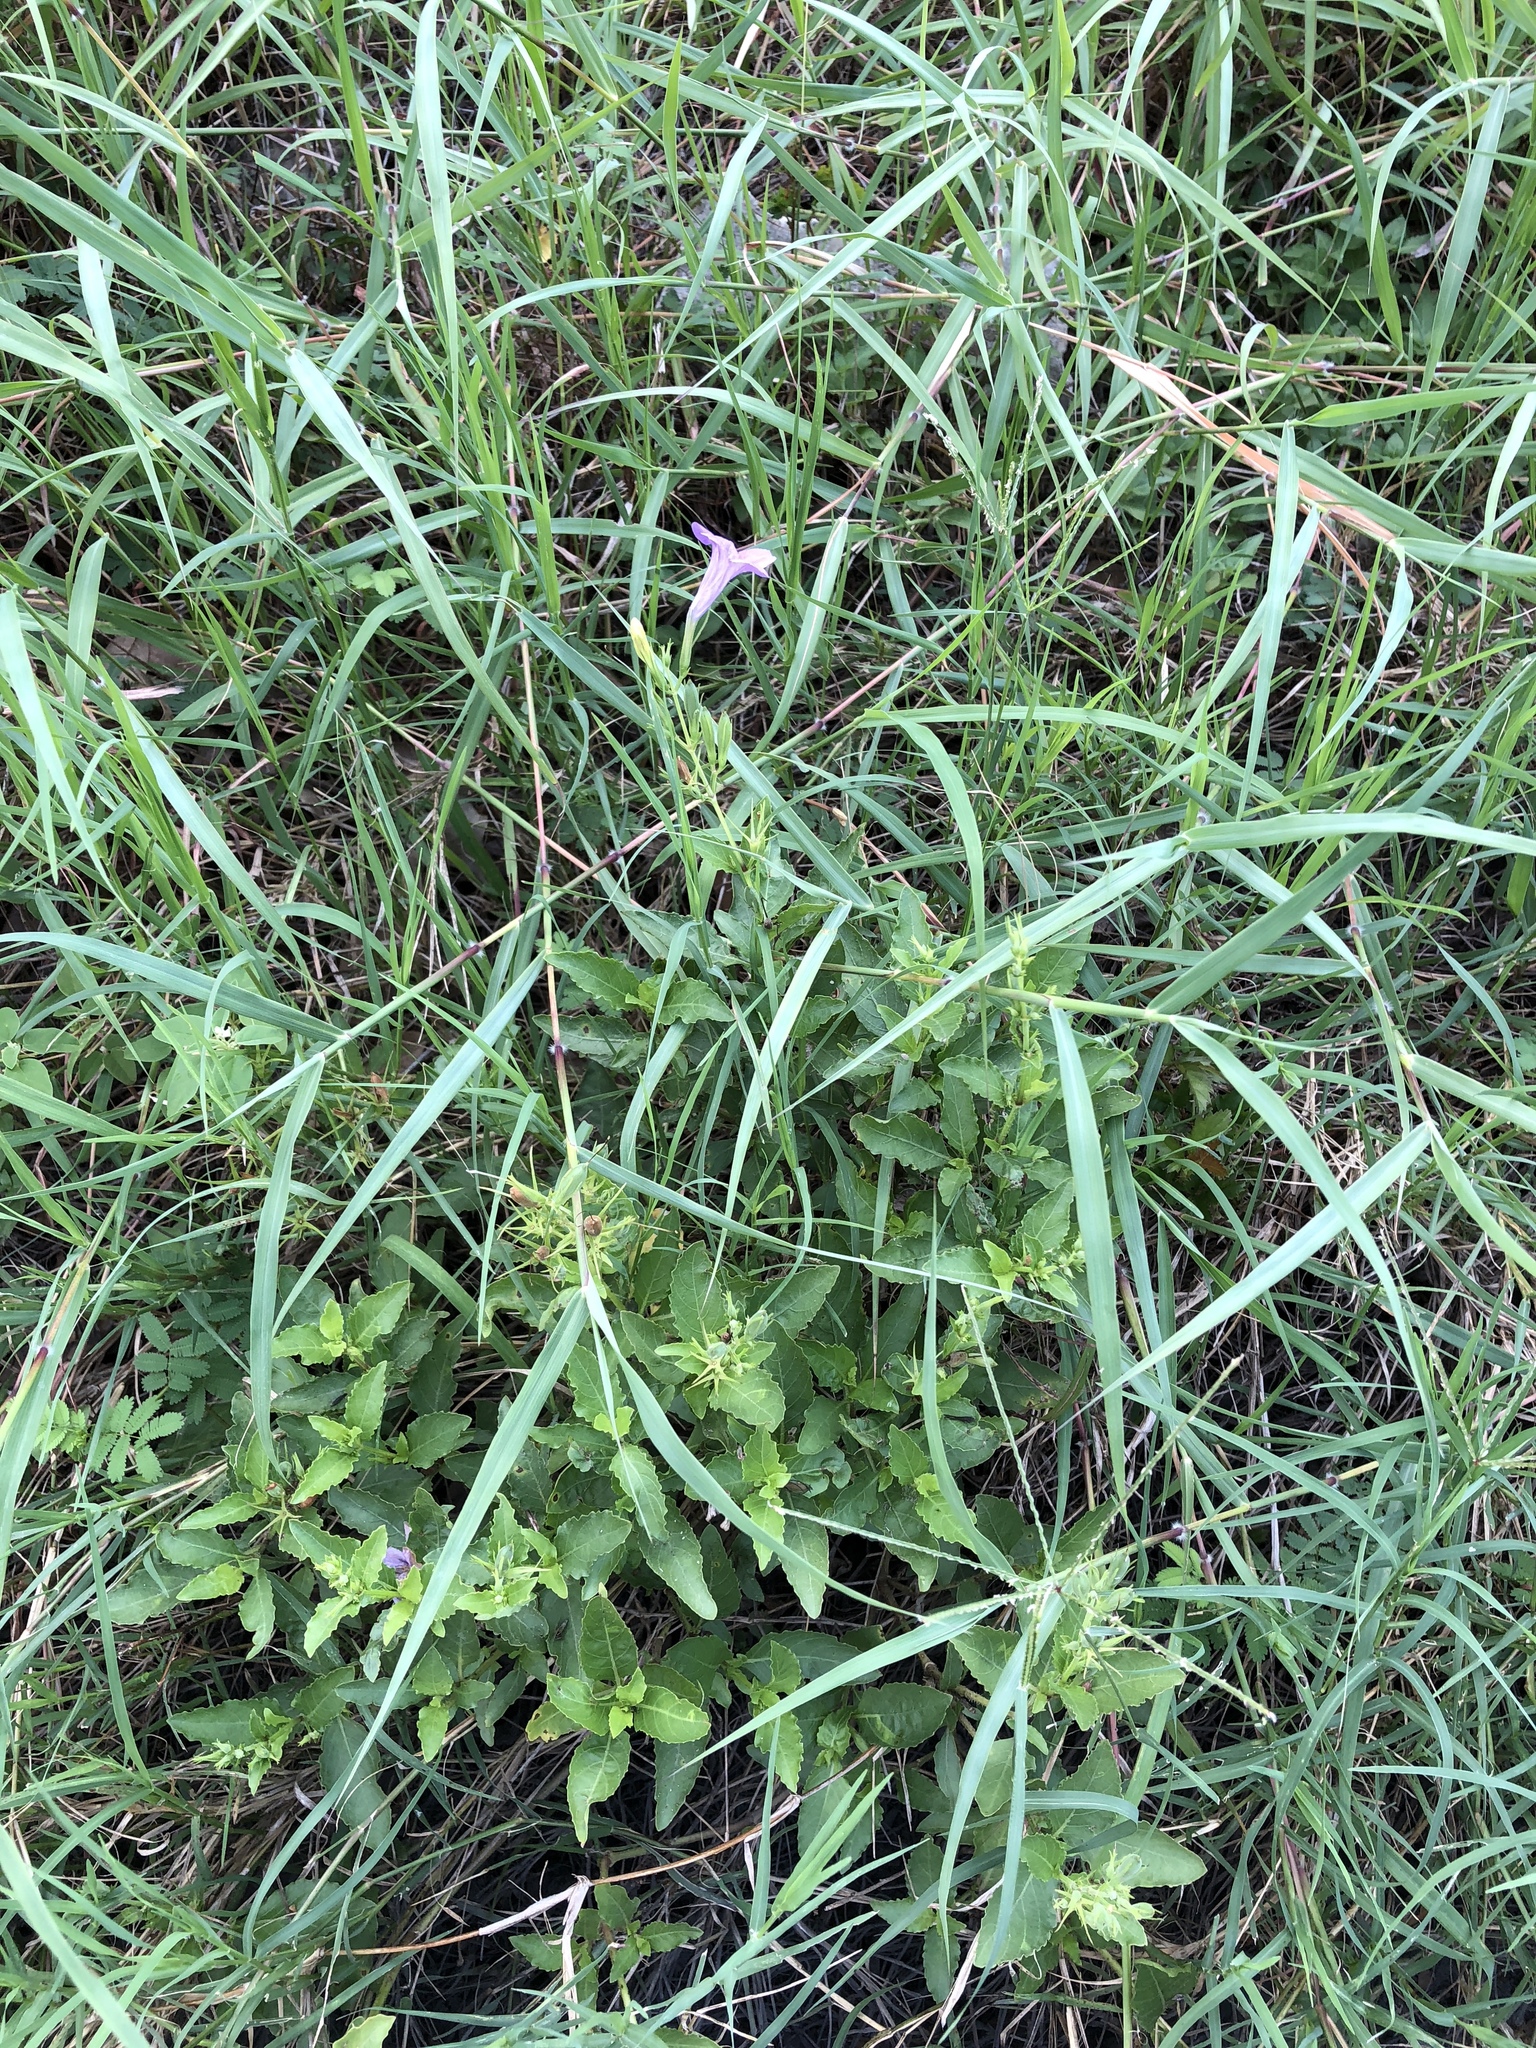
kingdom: Plantae
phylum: Tracheophyta
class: Magnoliopsida
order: Lamiales
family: Acanthaceae
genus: Ruellia
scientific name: Ruellia ciliatiflora
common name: Hairyflower wild petunia
